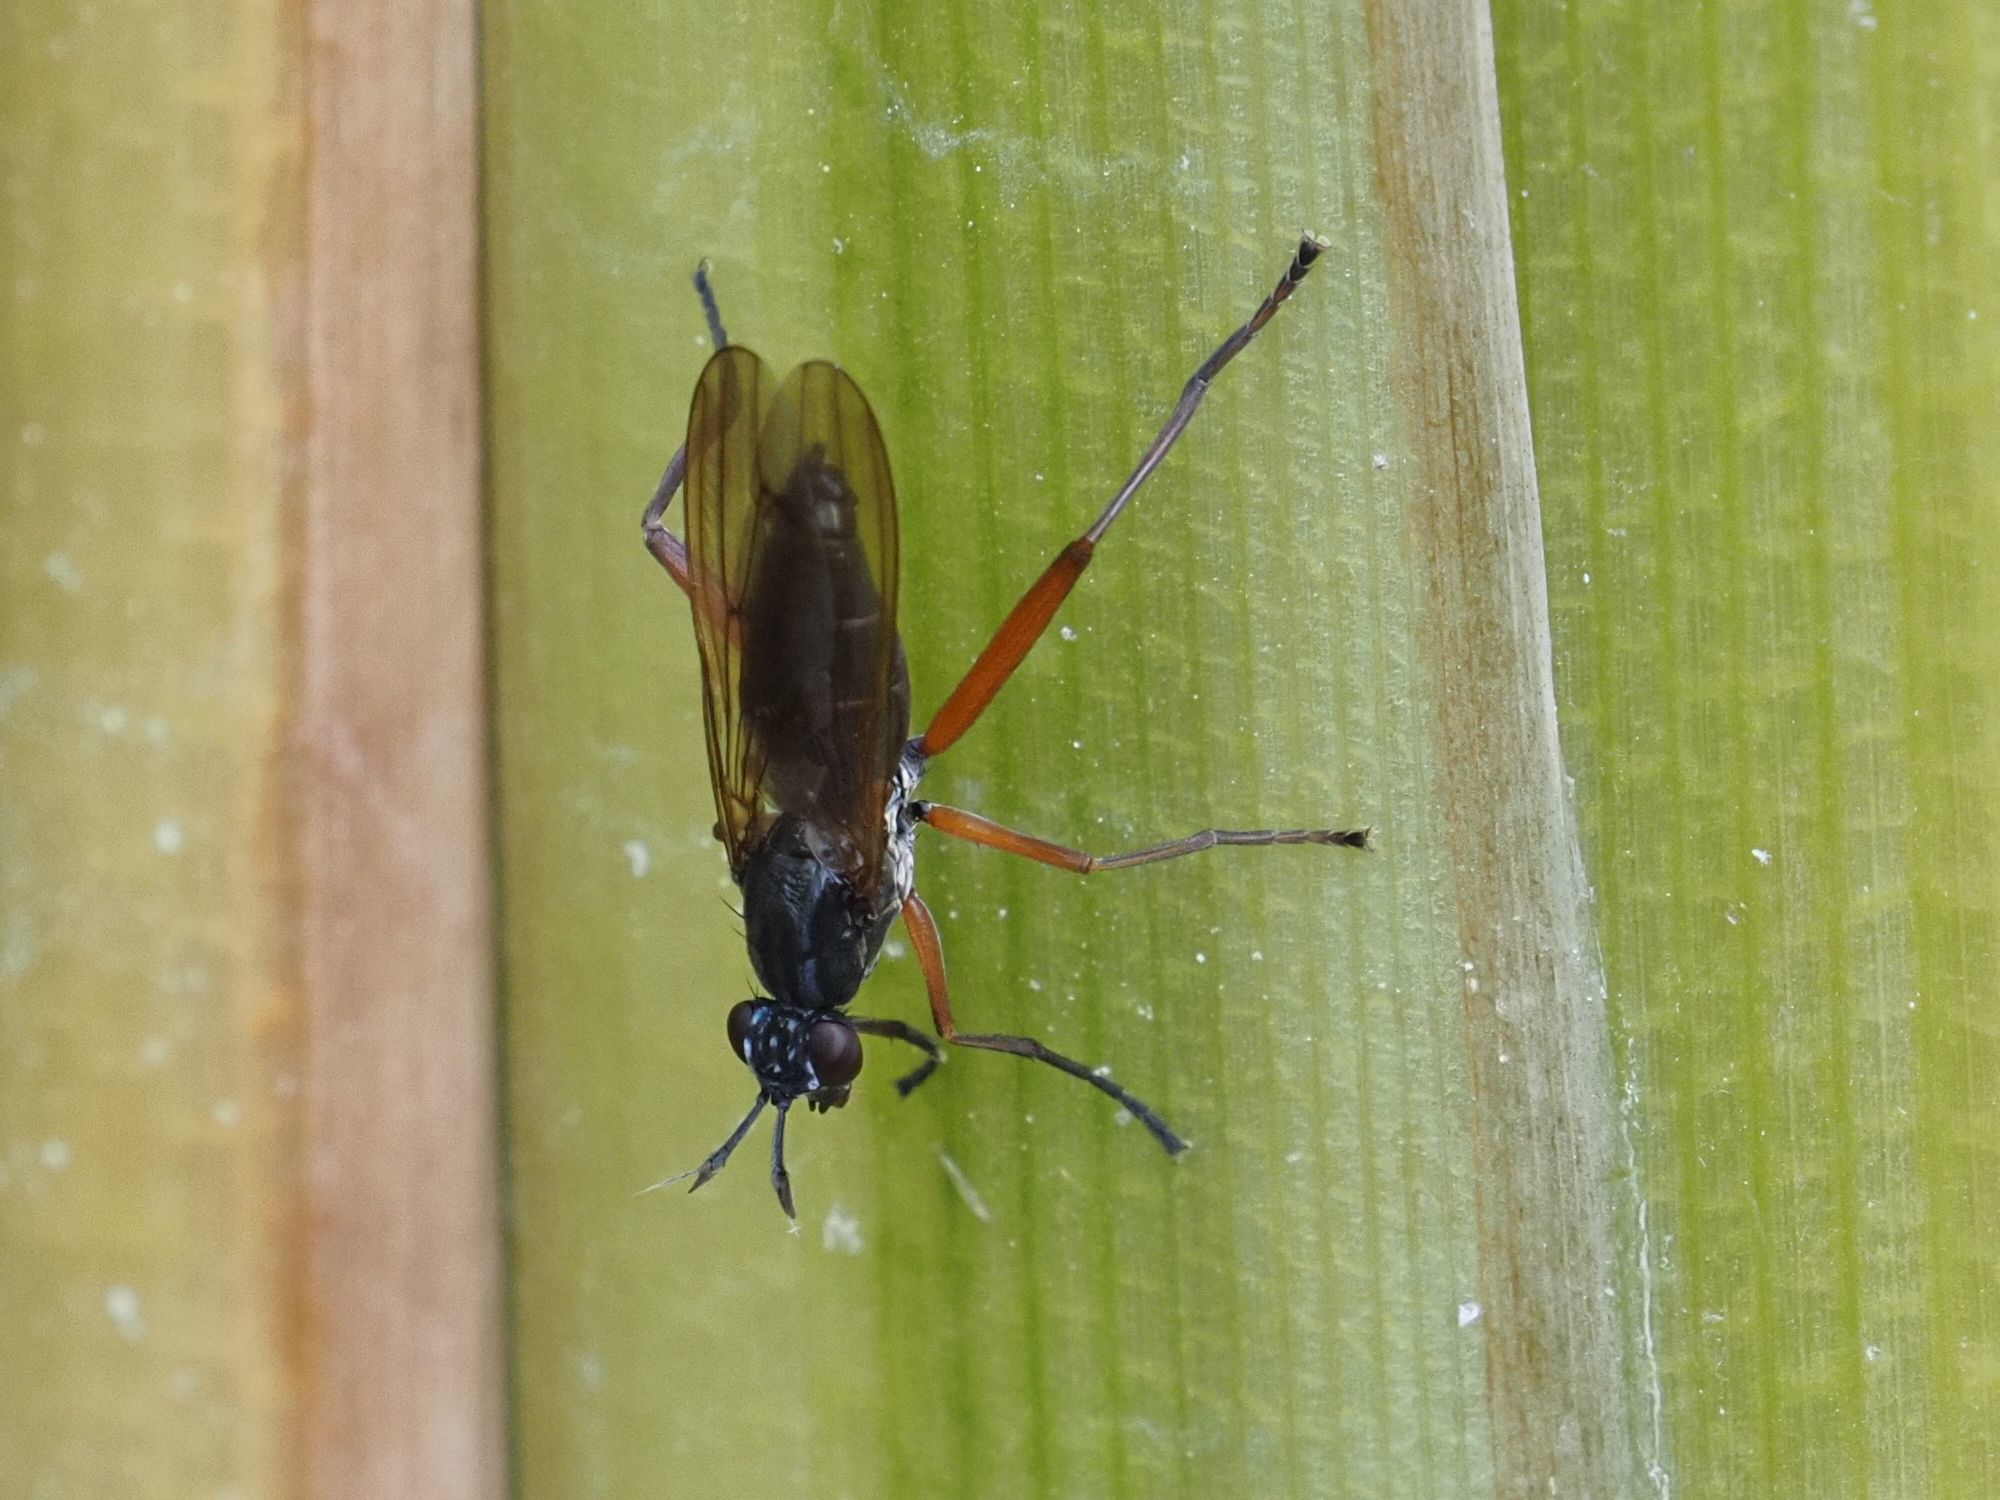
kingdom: Animalia
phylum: Arthropoda
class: Insecta
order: Diptera
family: Sciomyzidae
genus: Sepedon
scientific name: Sepedon sphegea
